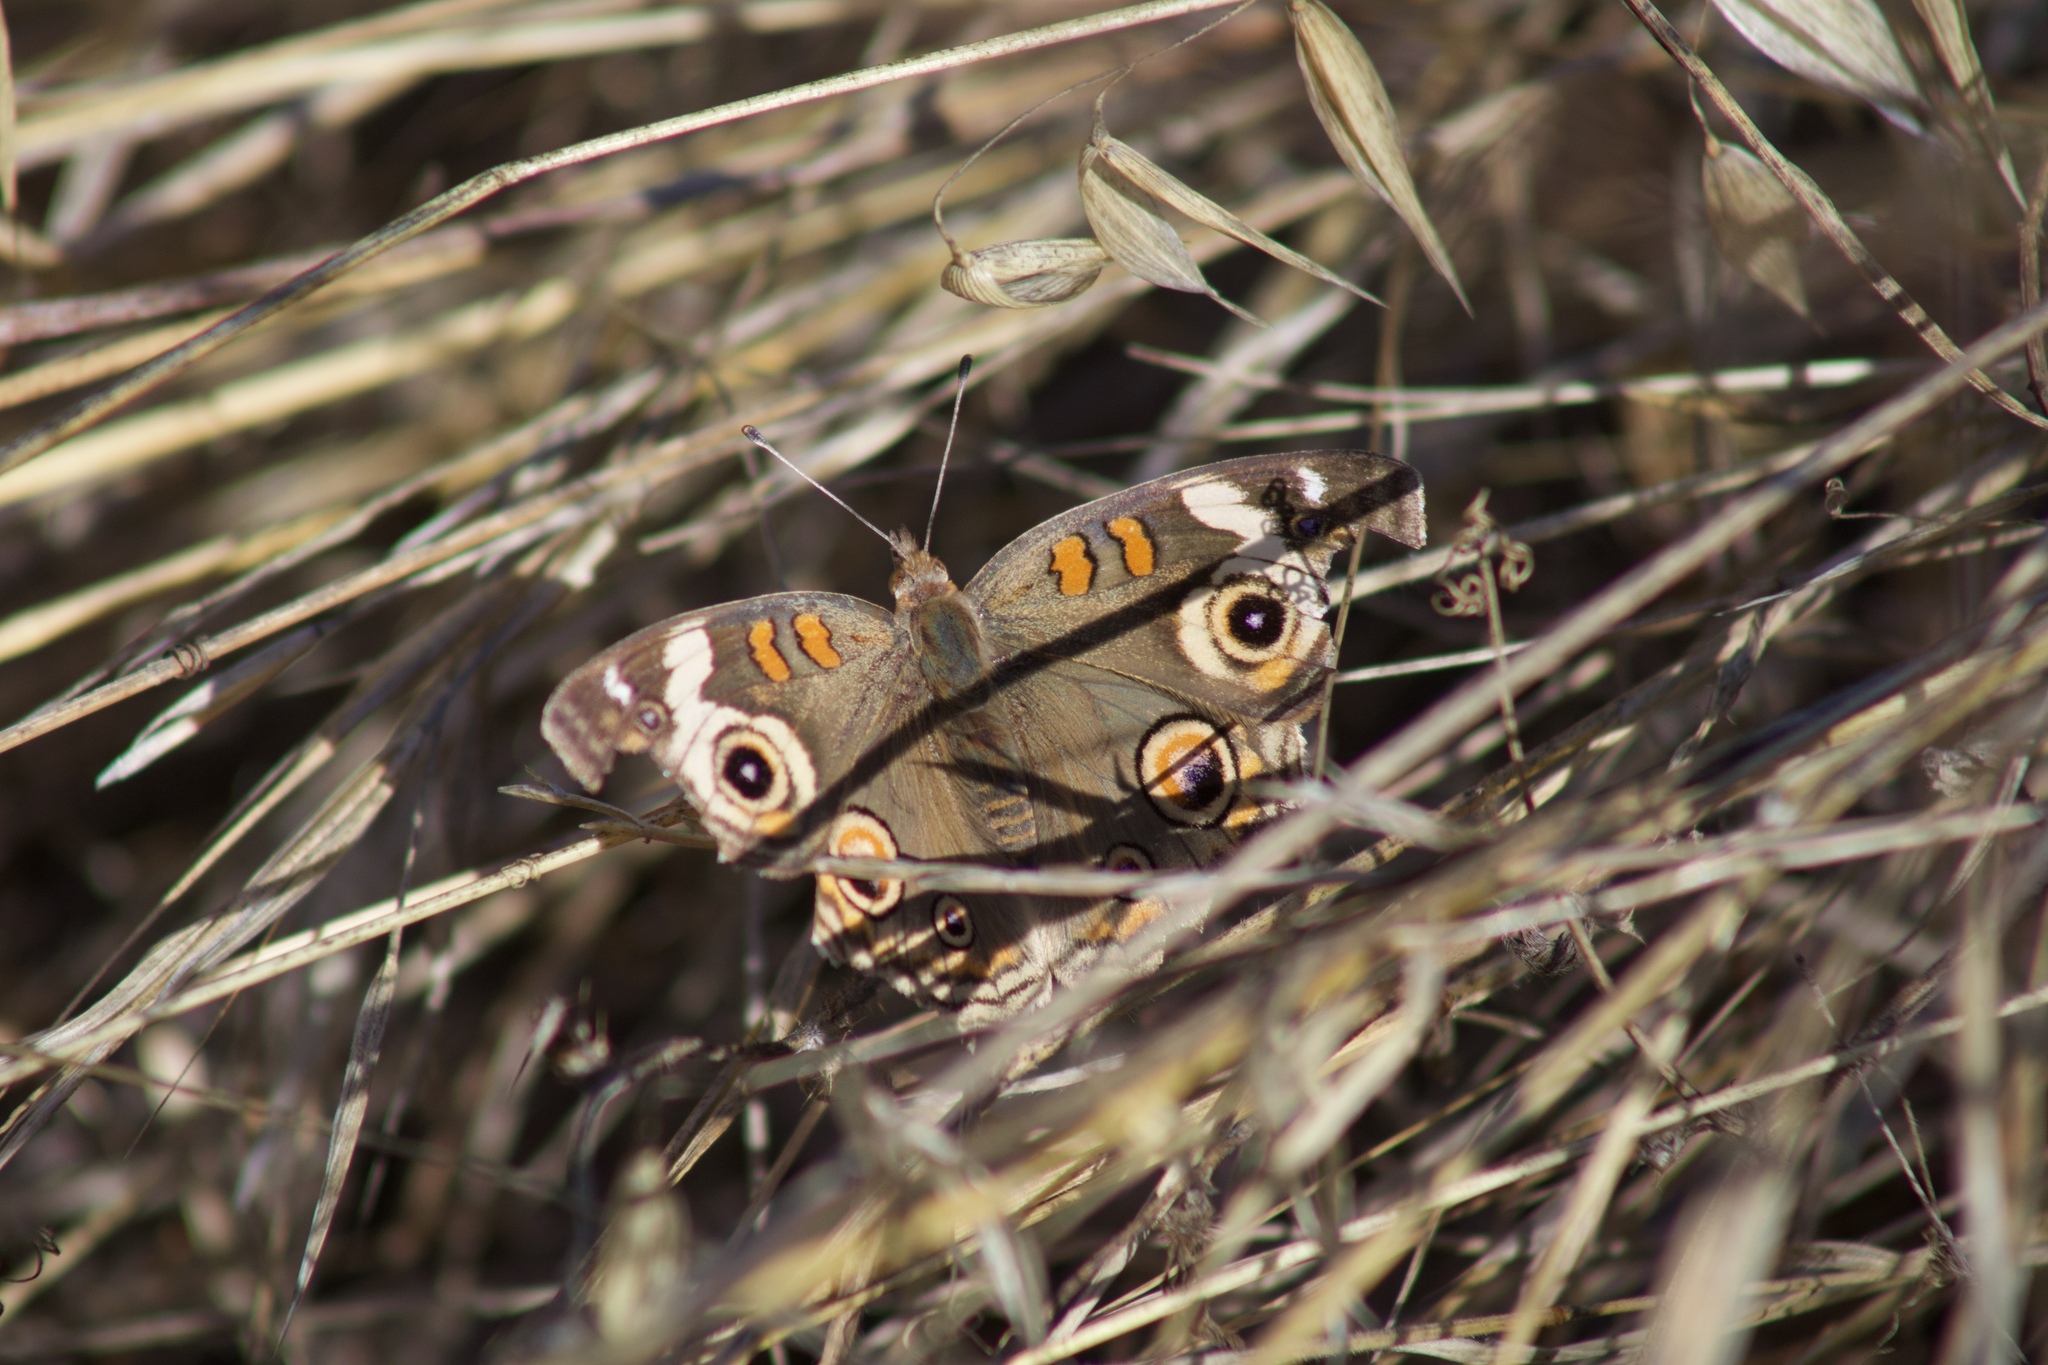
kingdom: Animalia
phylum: Arthropoda
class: Insecta
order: Lepidoptera
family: Nymphalidae
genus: Junonia
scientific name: Junonia grisea
